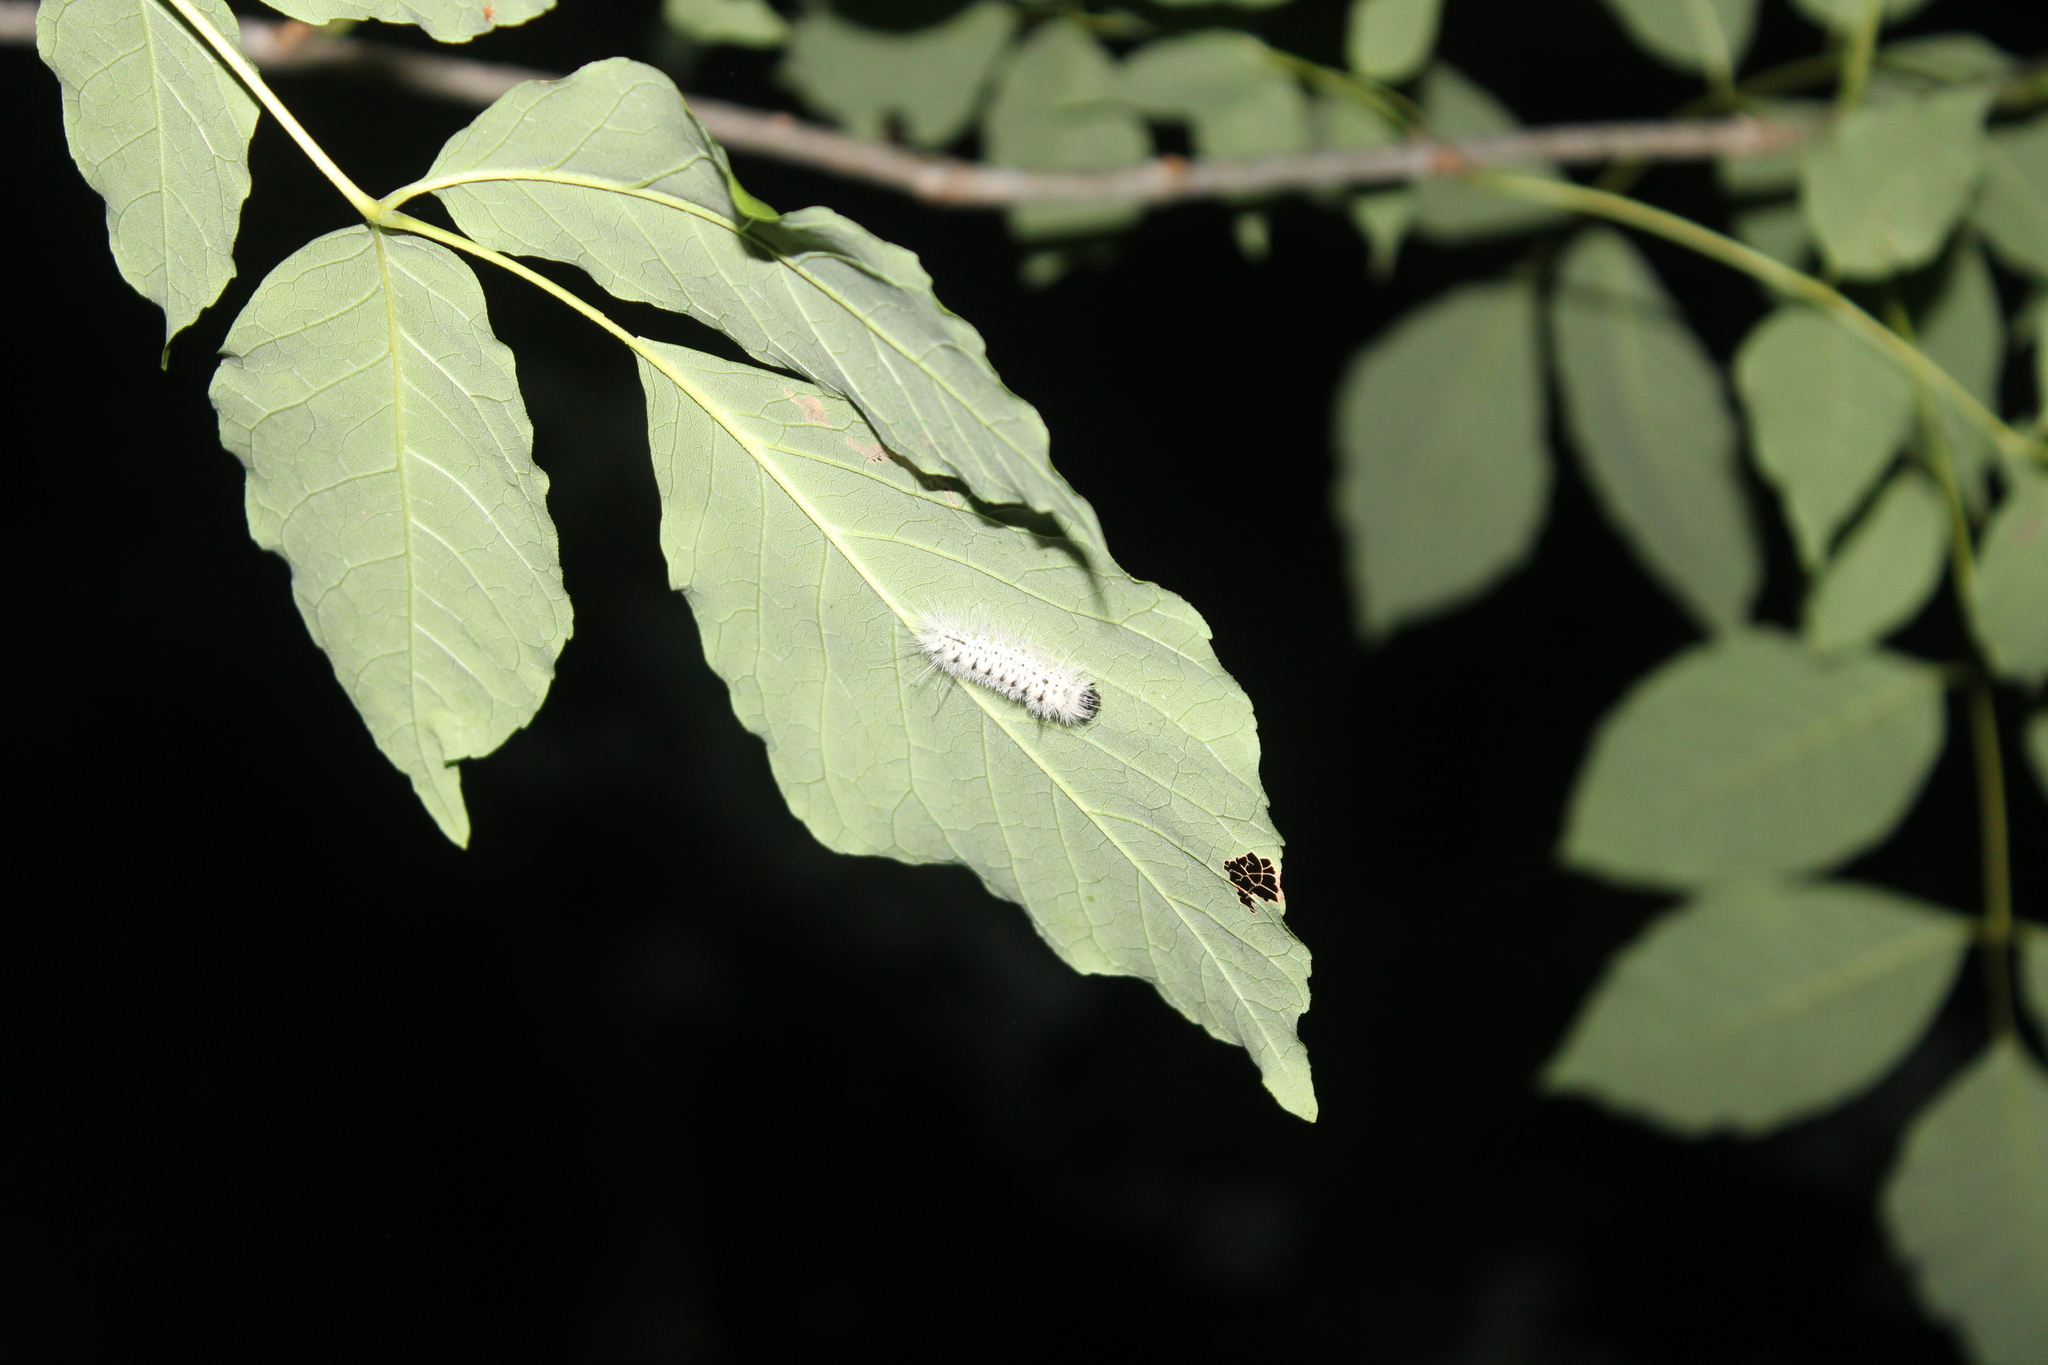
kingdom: Animalia
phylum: Arthropoda
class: Insecta
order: Lepidoptera
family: Erebidae
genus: Lophocampa
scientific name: Lophocampa caryae
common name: Hickory tussock moth
